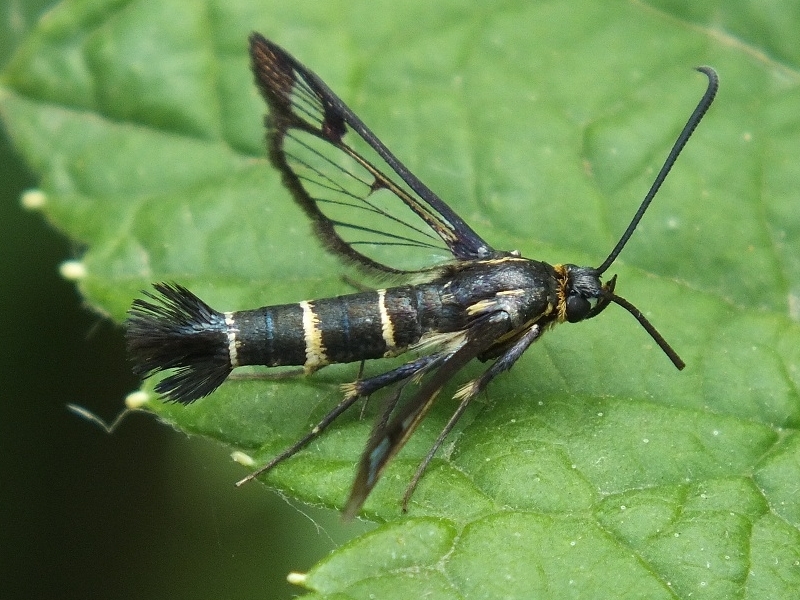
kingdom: Animalia
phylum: Arthropoda
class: Insecta
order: Lepidoptera
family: Sesiidae
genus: Synanthedon
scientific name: Synanthedon tipuliformis
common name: Currant clearwing
